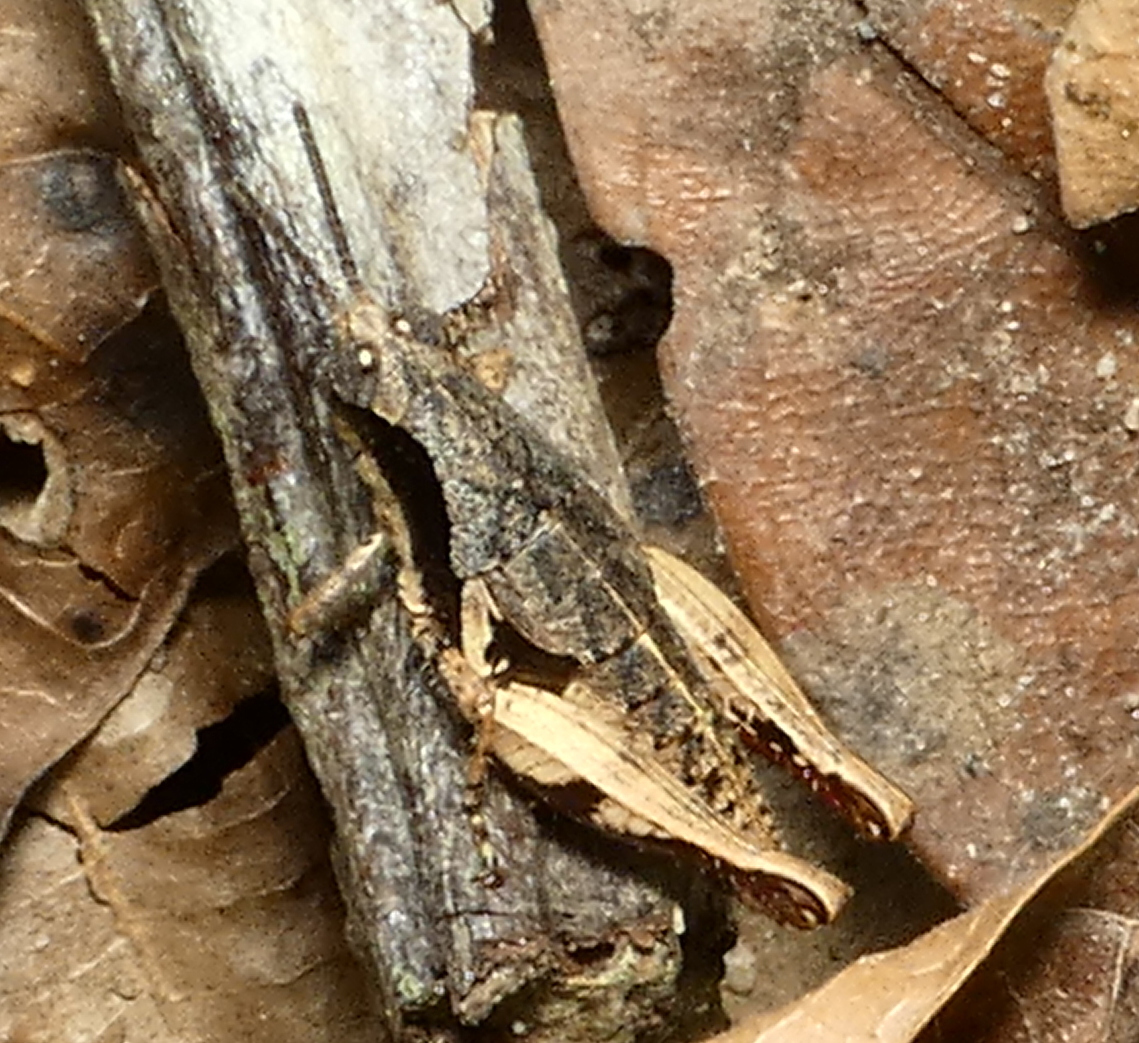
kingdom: Animalia
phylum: Arthropoda
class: Insecta
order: Orthoptera
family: Acrididae
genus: Eujivarus
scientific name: Eujivarus meridionalis
